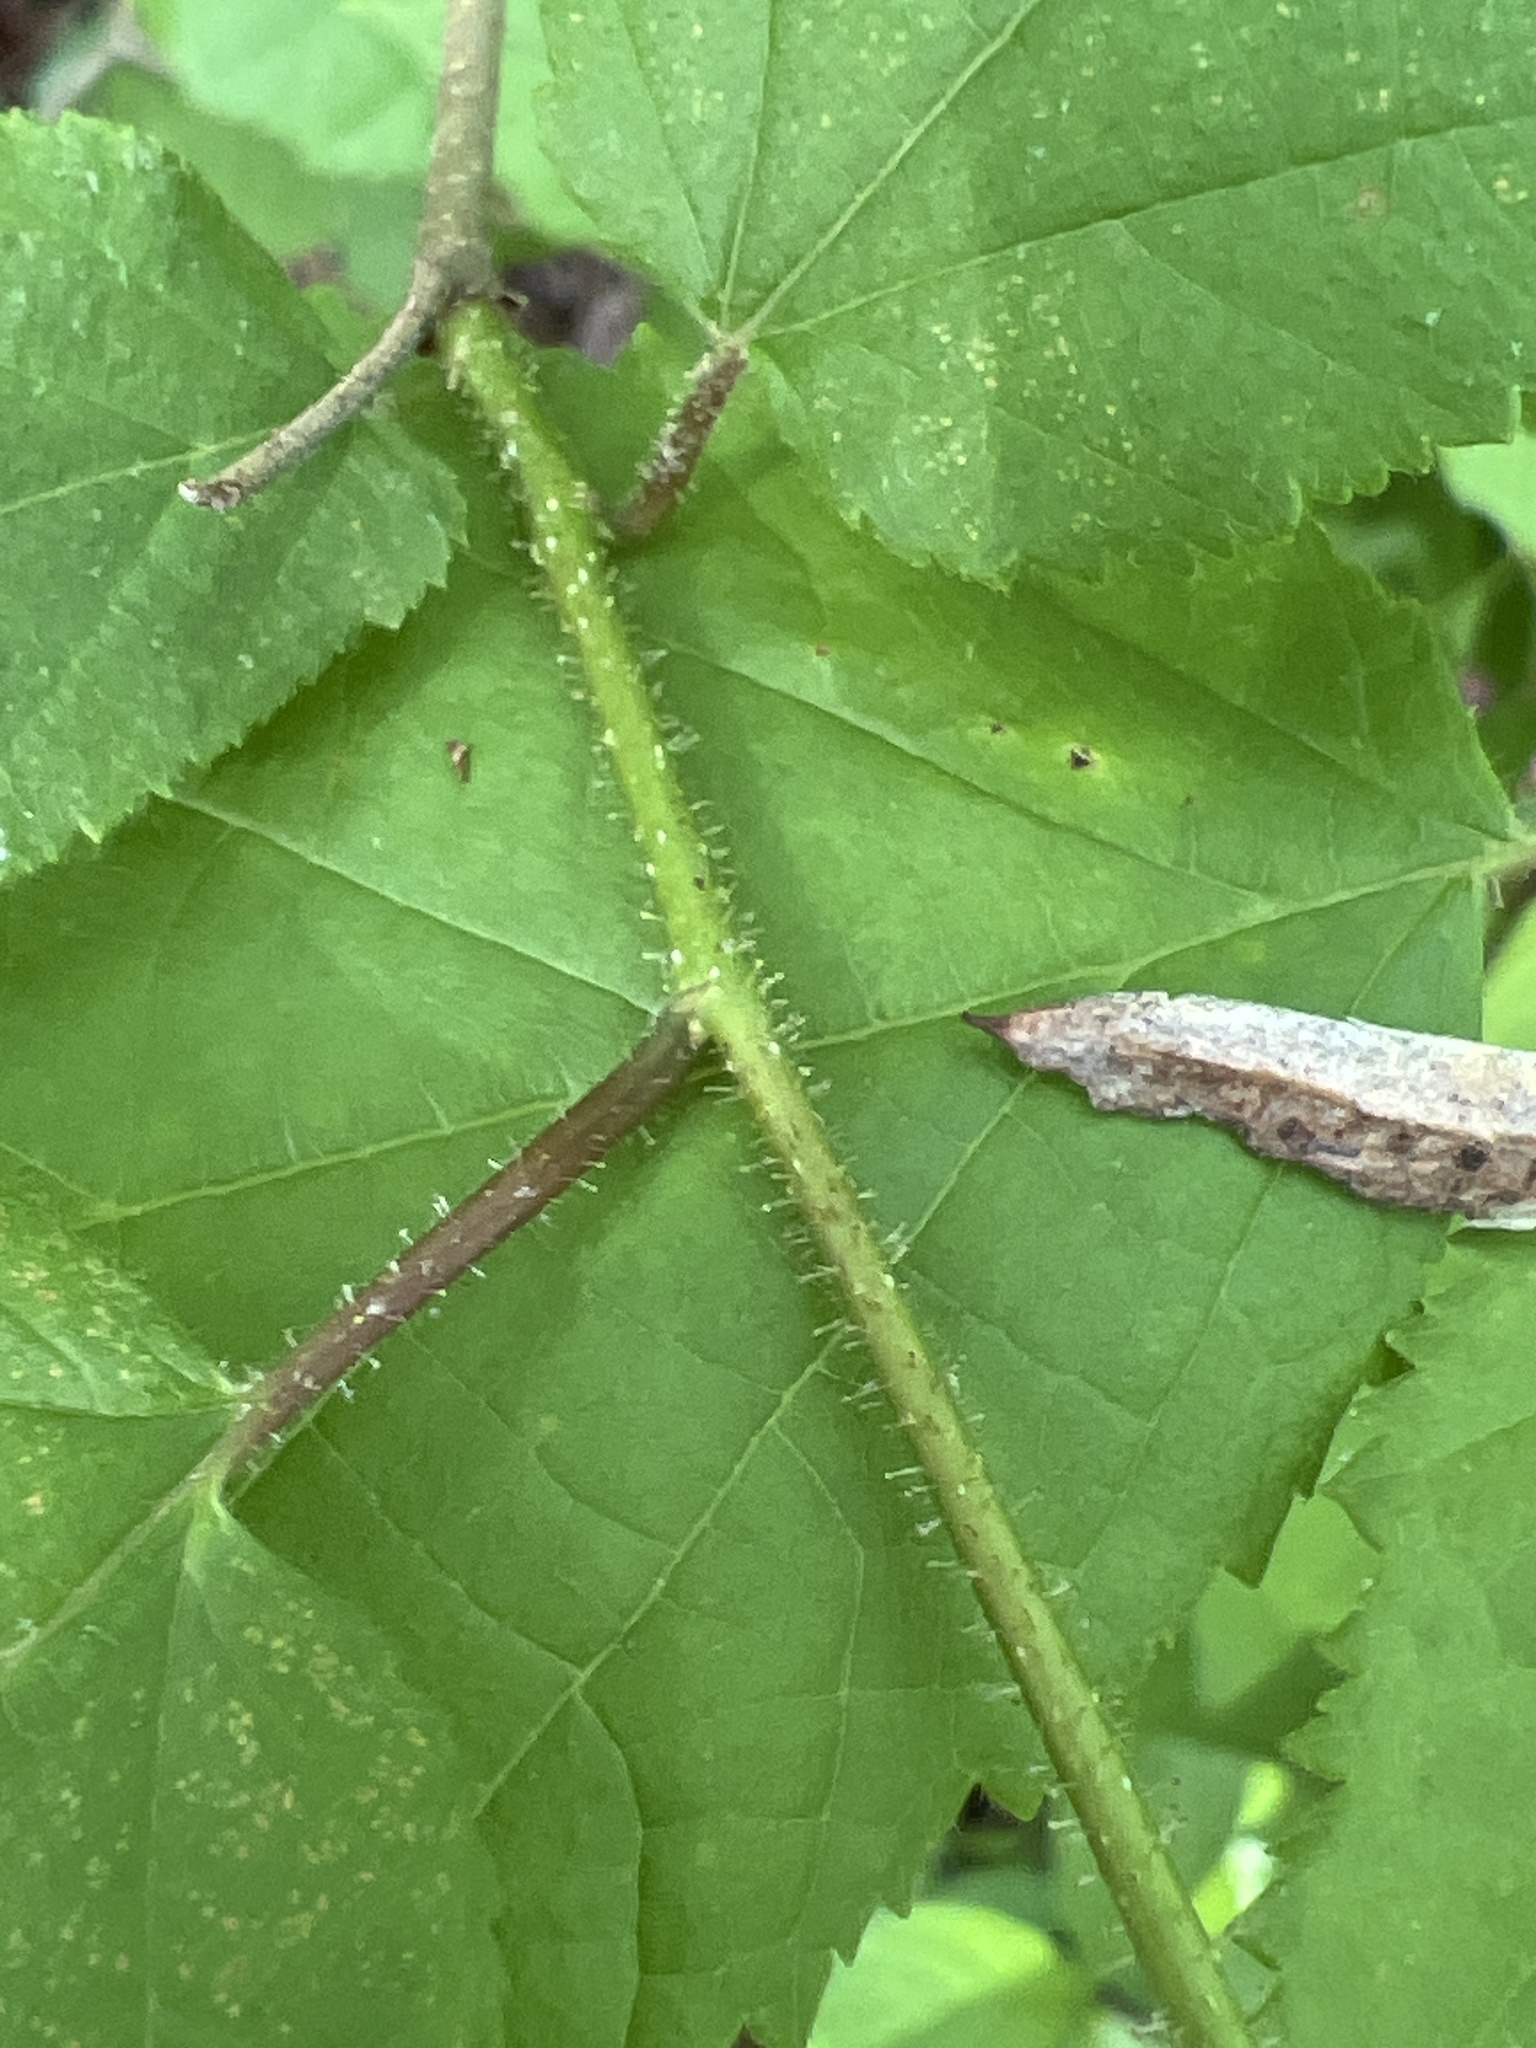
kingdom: Plantae
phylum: Tracheophyta
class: Magnoliopsida
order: Fagales
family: Betulaceae
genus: Corylus
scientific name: Corylus americana
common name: American hazel
